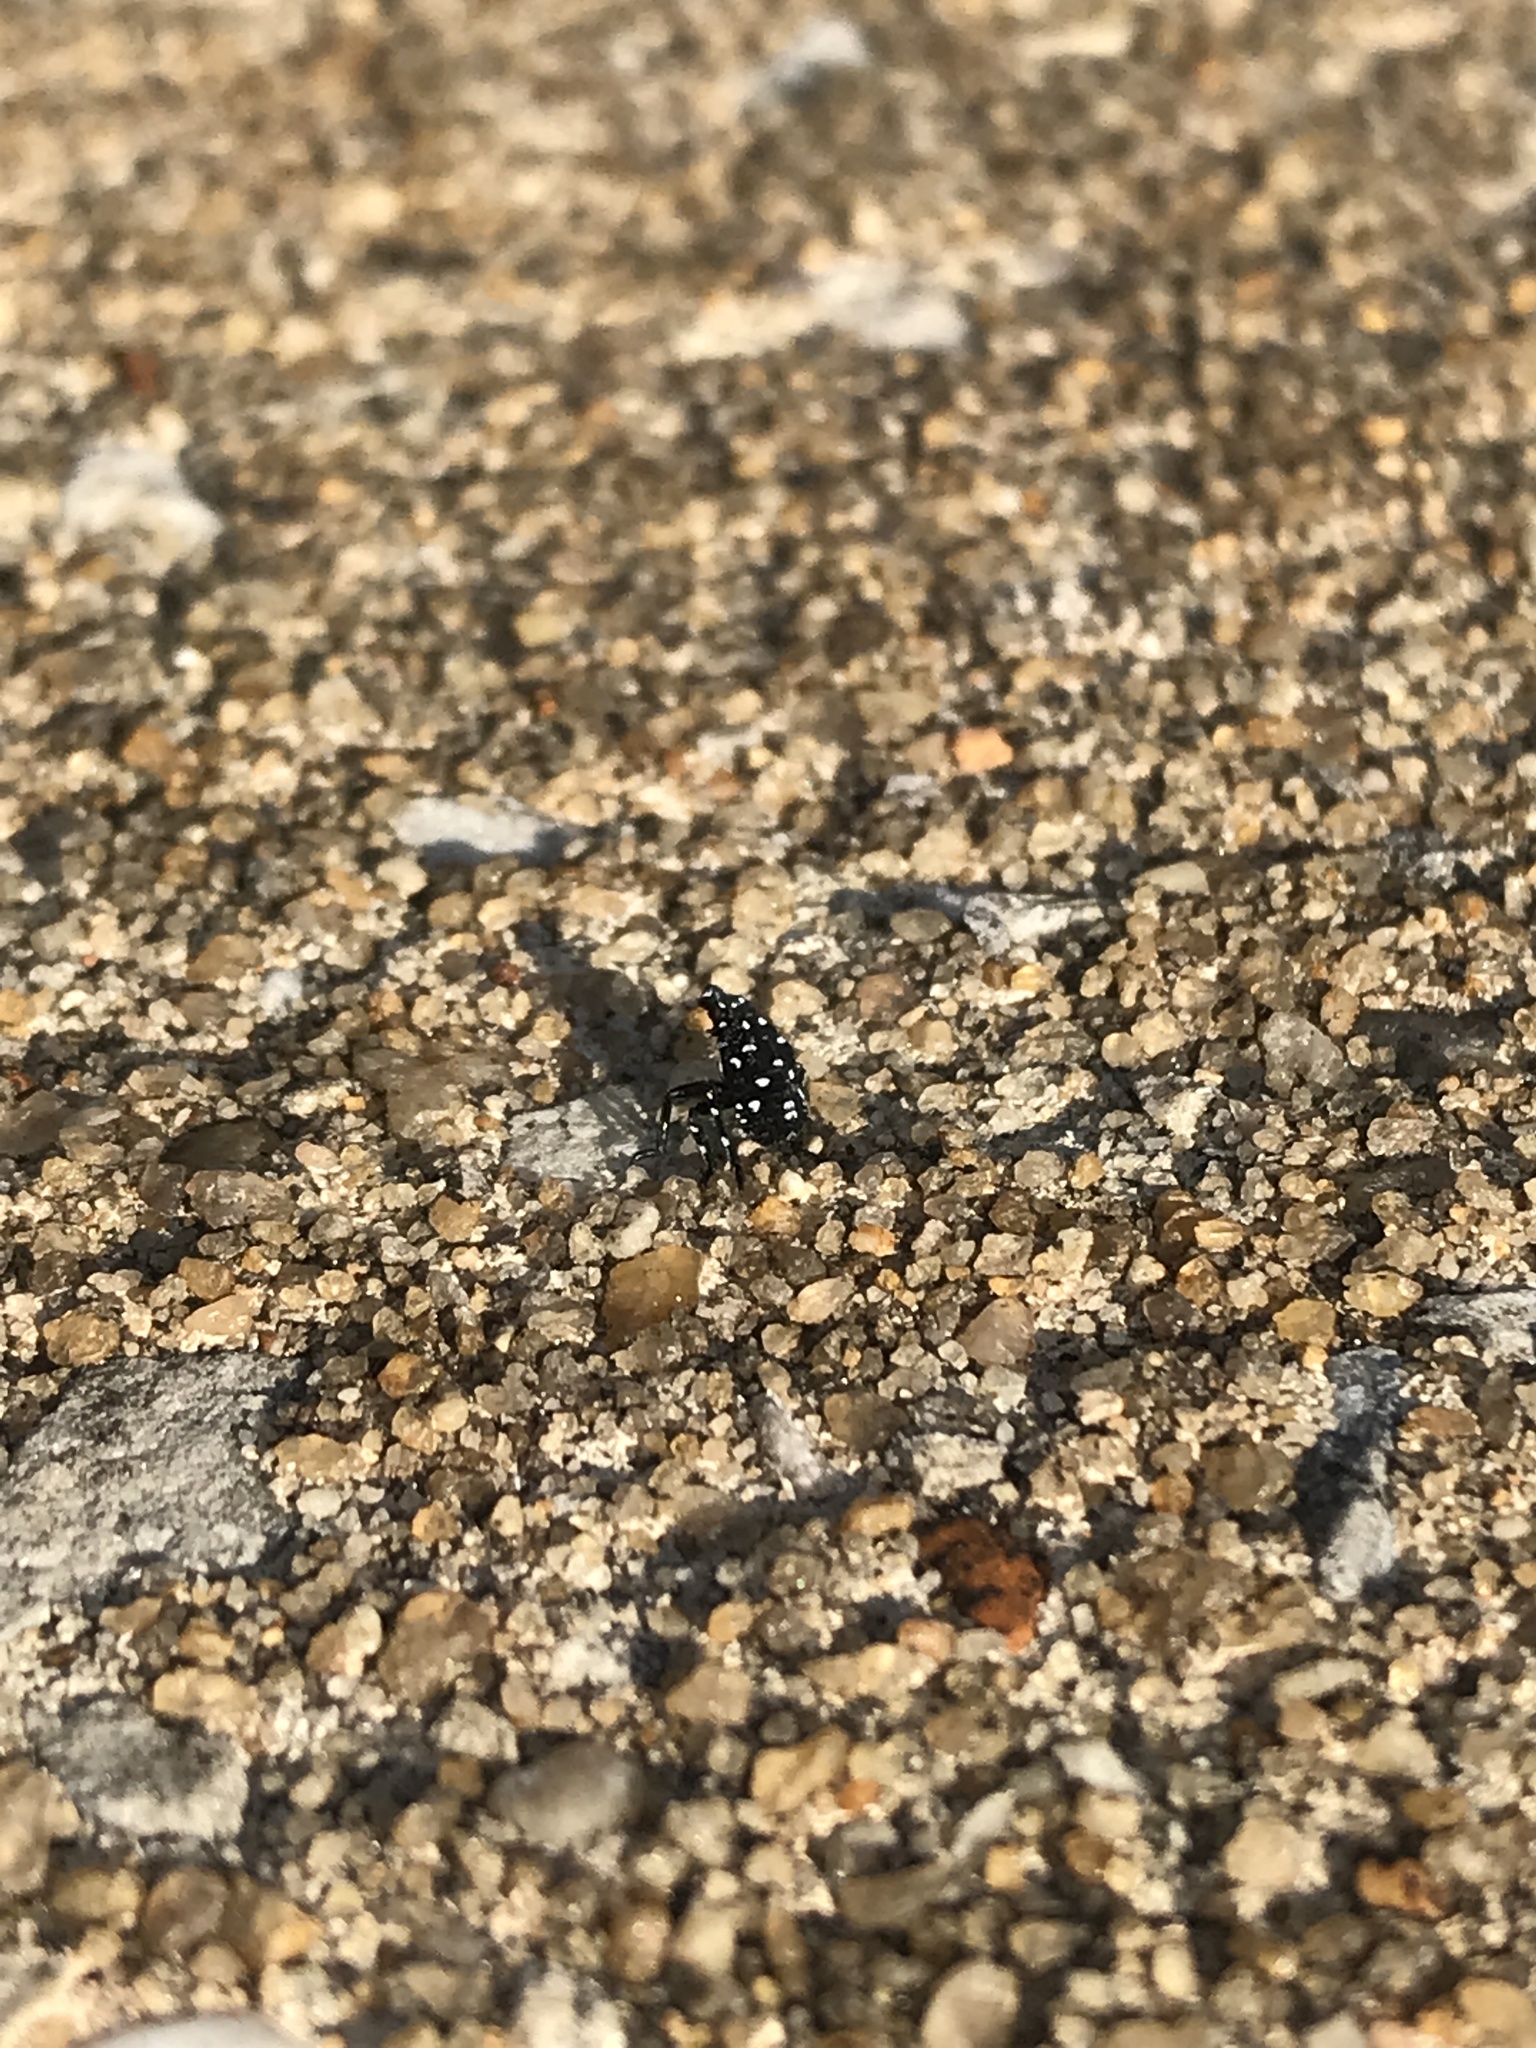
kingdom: Animalia
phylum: Arthropoda
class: Insecta
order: Hemiptera
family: Fulgoridae
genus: Lycorma
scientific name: Lycorma delicatula
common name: Spotted lanternfly
